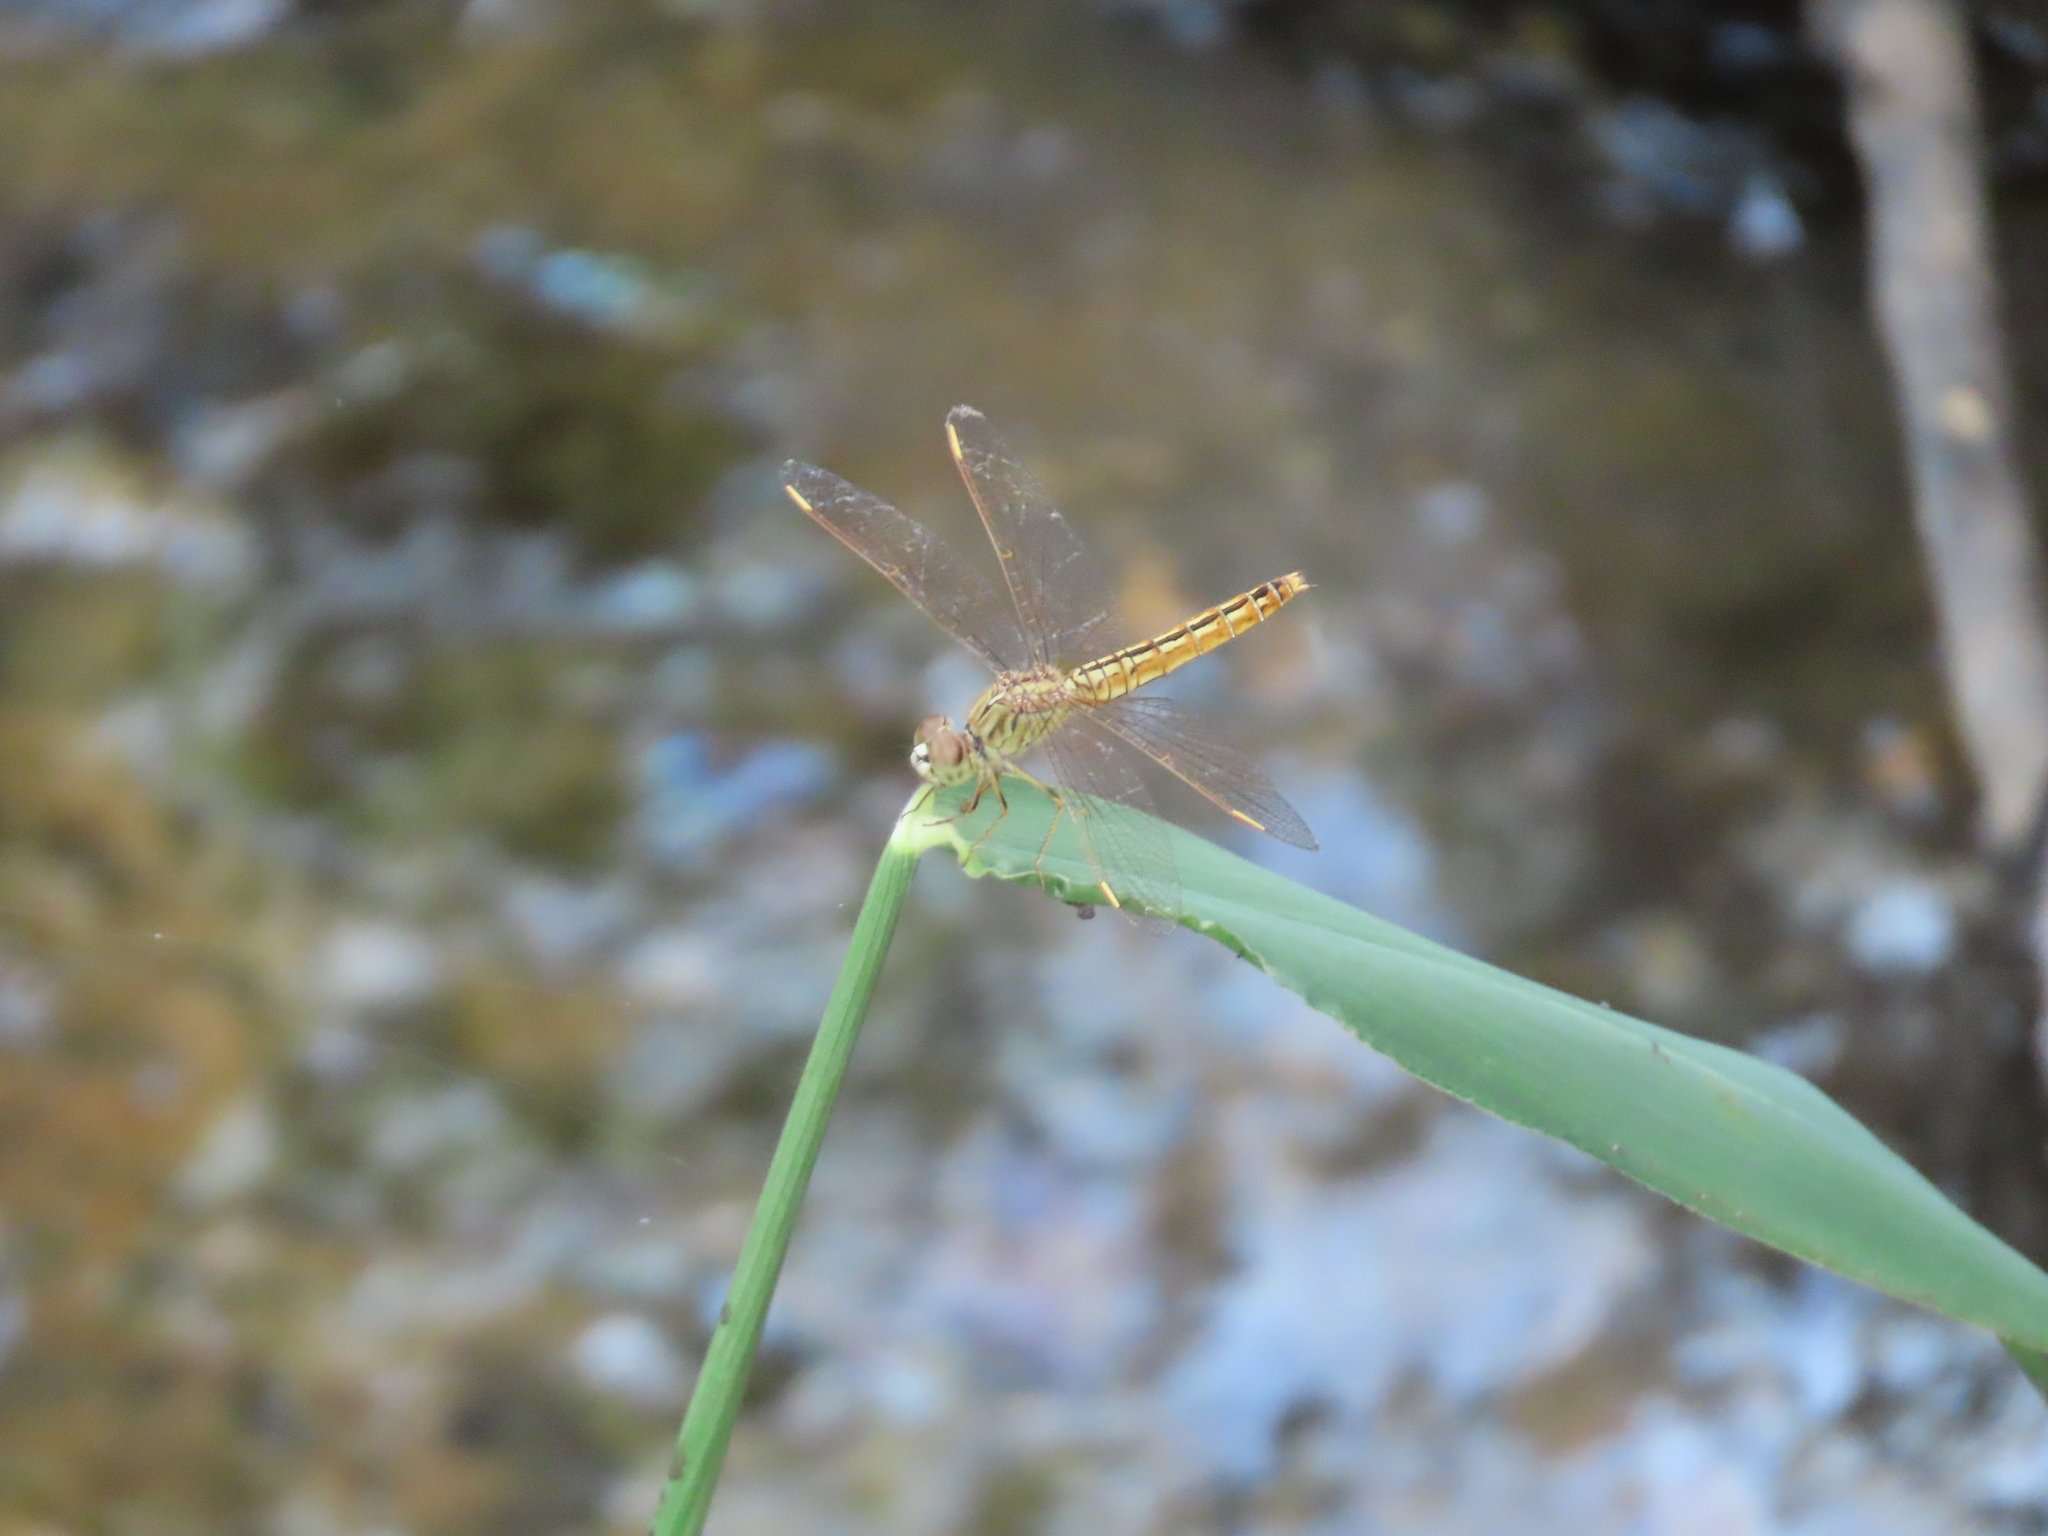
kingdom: Animalia
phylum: Arthropoda
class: Insecta
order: Odonata
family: Libellulidae
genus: Brachythemis
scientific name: Brachythemis contaminata
